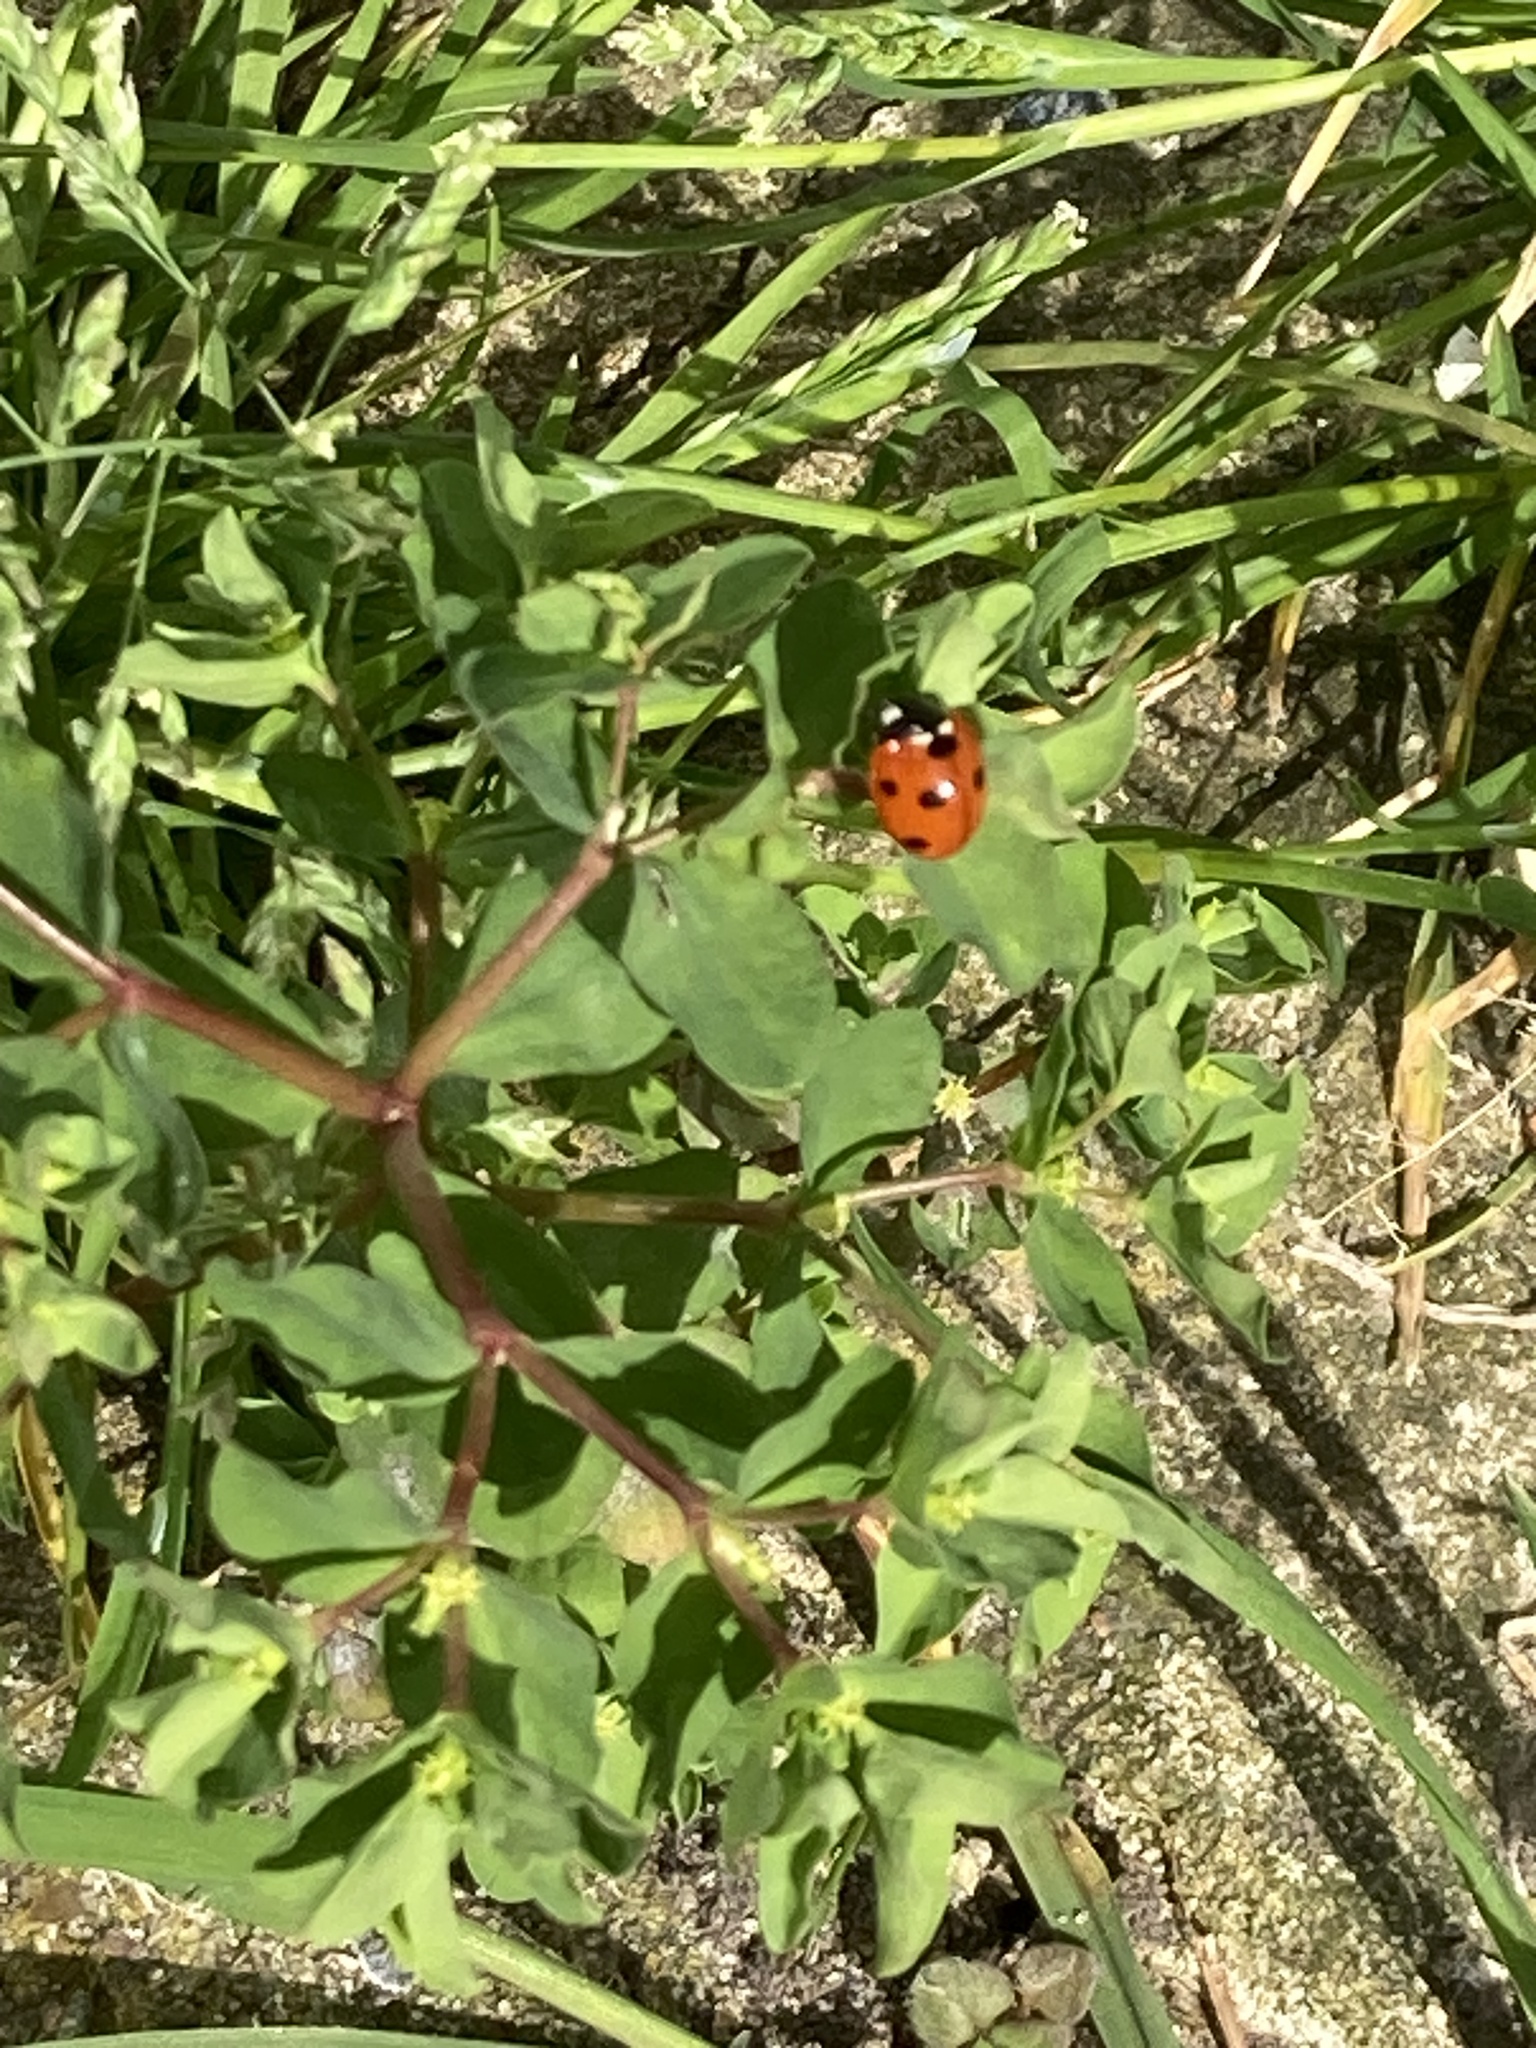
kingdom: Animalia
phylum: Arthropoda
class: Insecta
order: Coleoptera
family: Coccinellidae
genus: Coccinella
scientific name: Coccinella septempunctata
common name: Sevenspotted lady beetle
